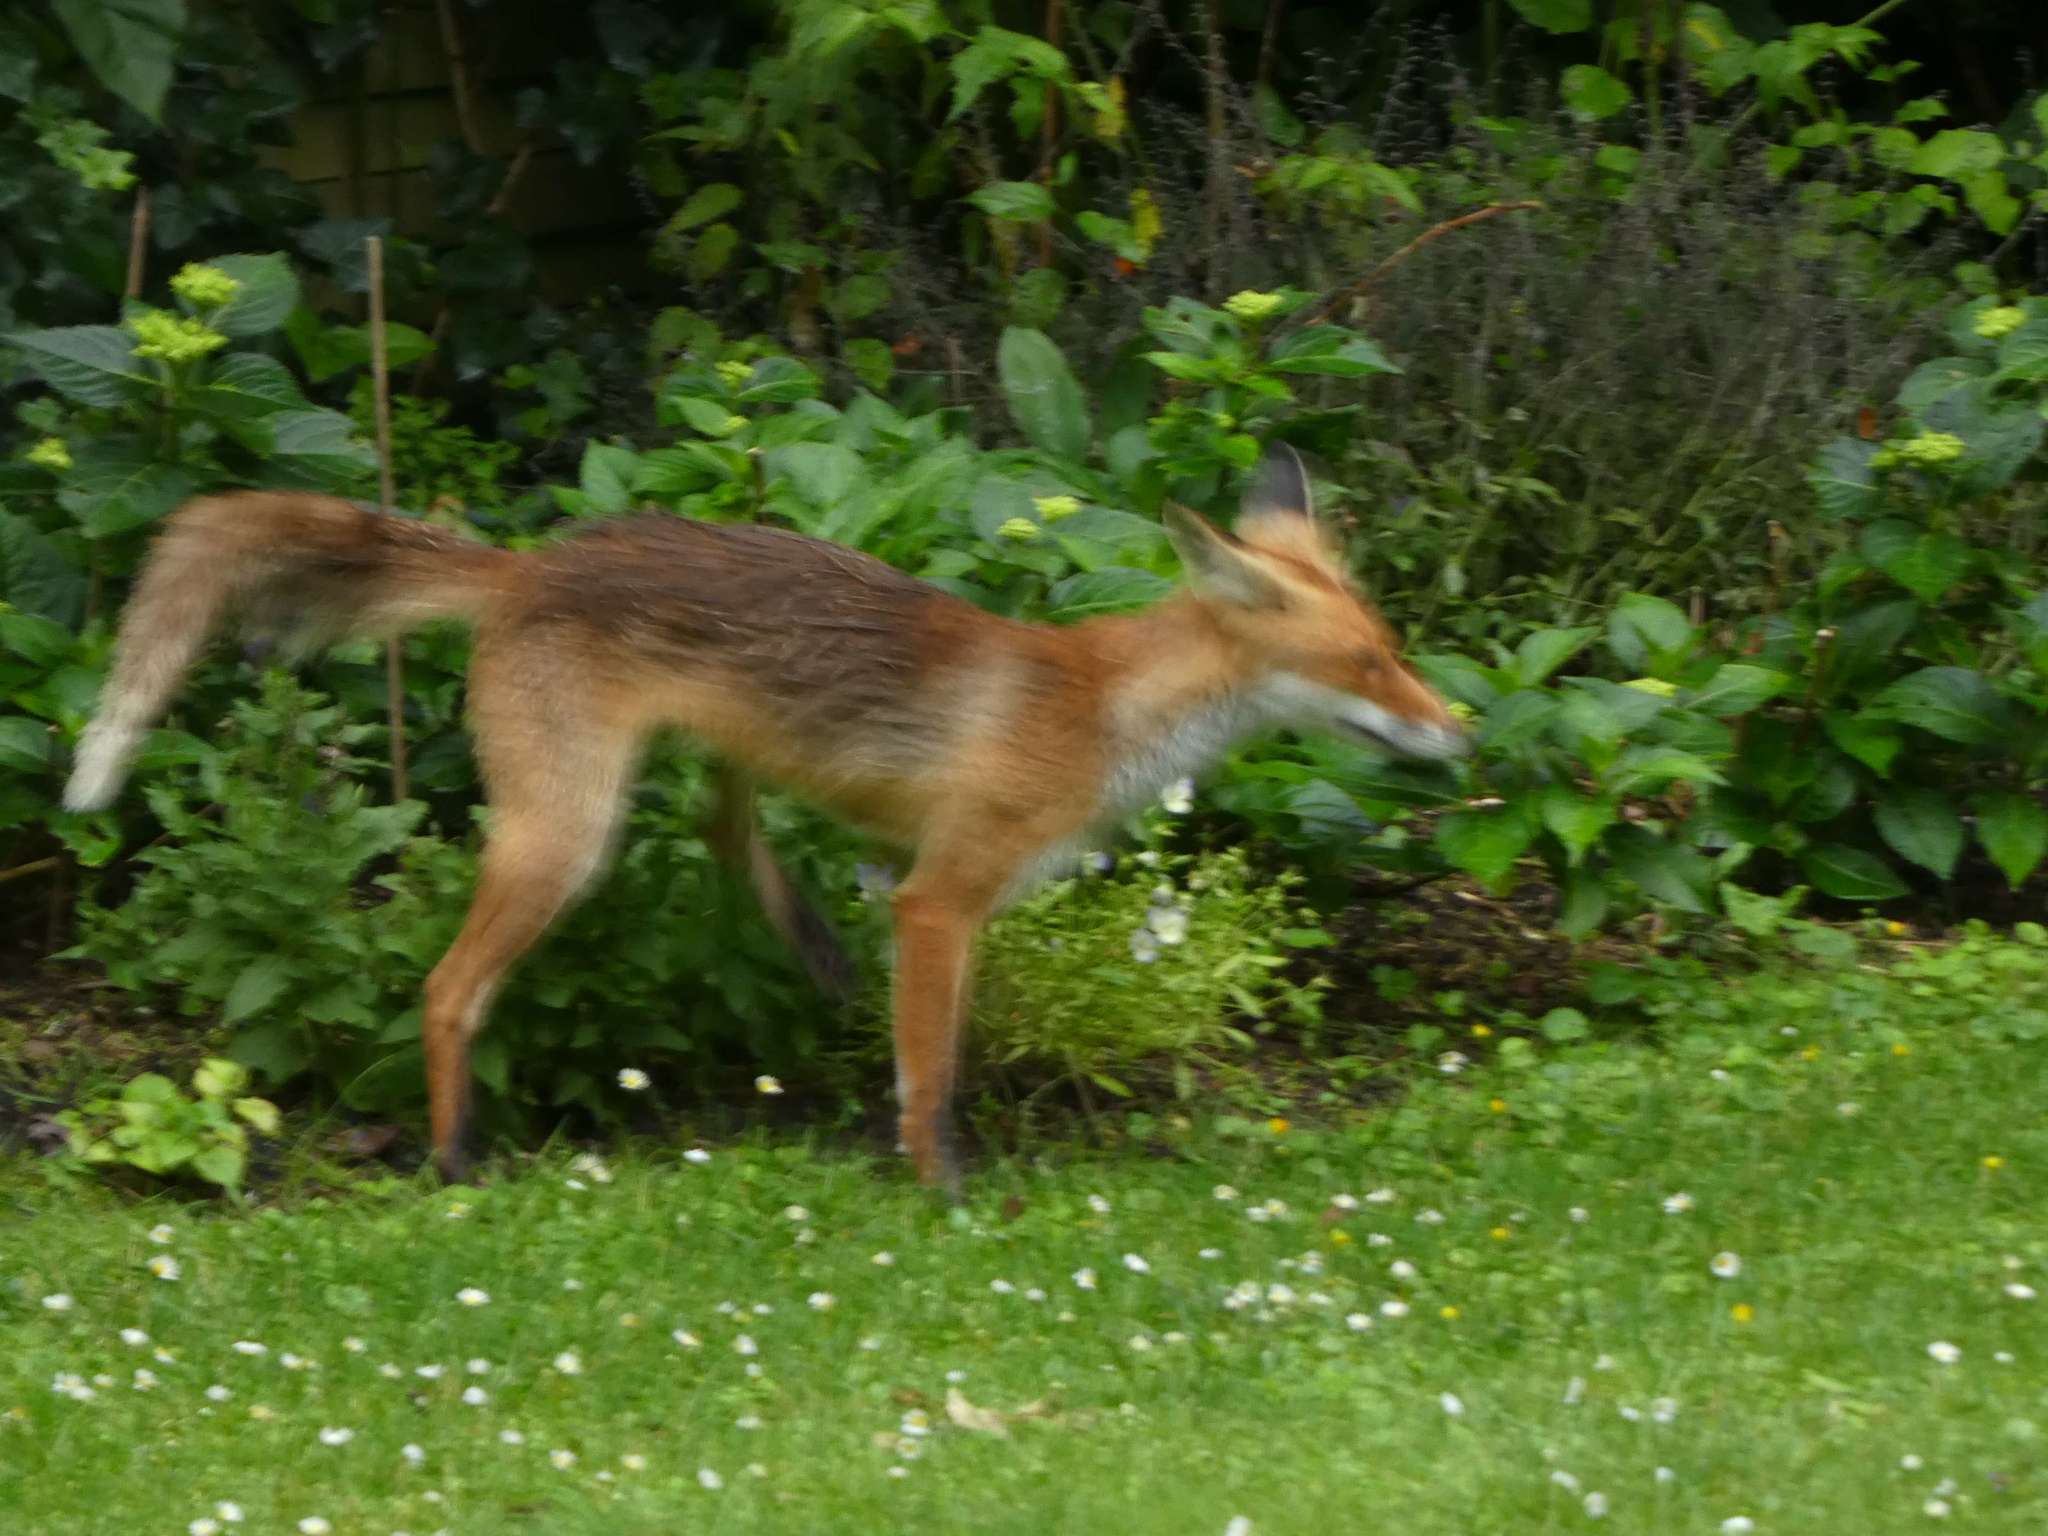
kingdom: Animalia
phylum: Chordata
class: Mammalia
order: Carnivora
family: Canidae
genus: Vulpes
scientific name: Vulpes vulpes
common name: Red fox
